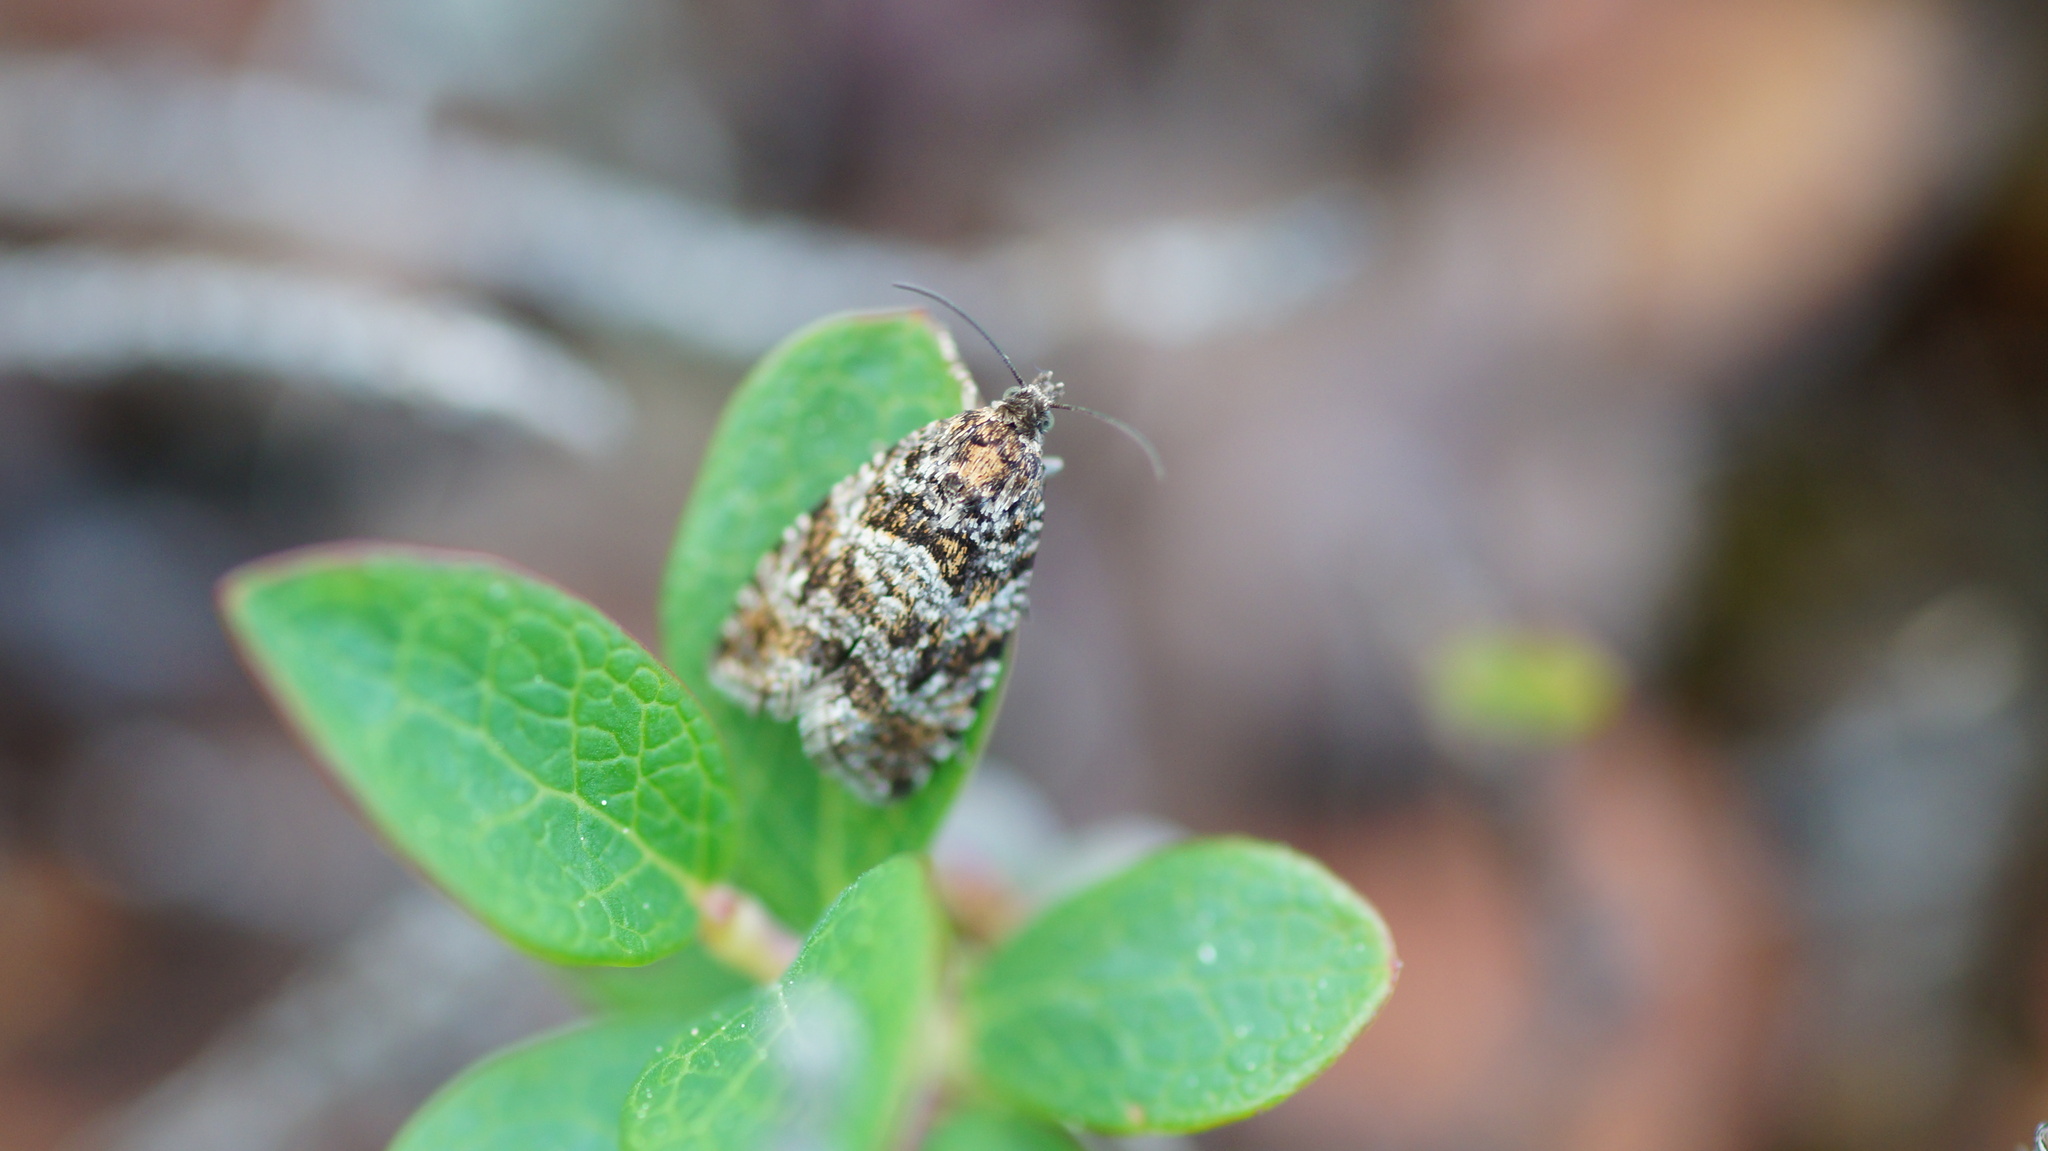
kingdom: Animalia
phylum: Arthropoda
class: Insecta
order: Lepidoptera
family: Tortricidae
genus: Olethreutini
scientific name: Olethreutini
